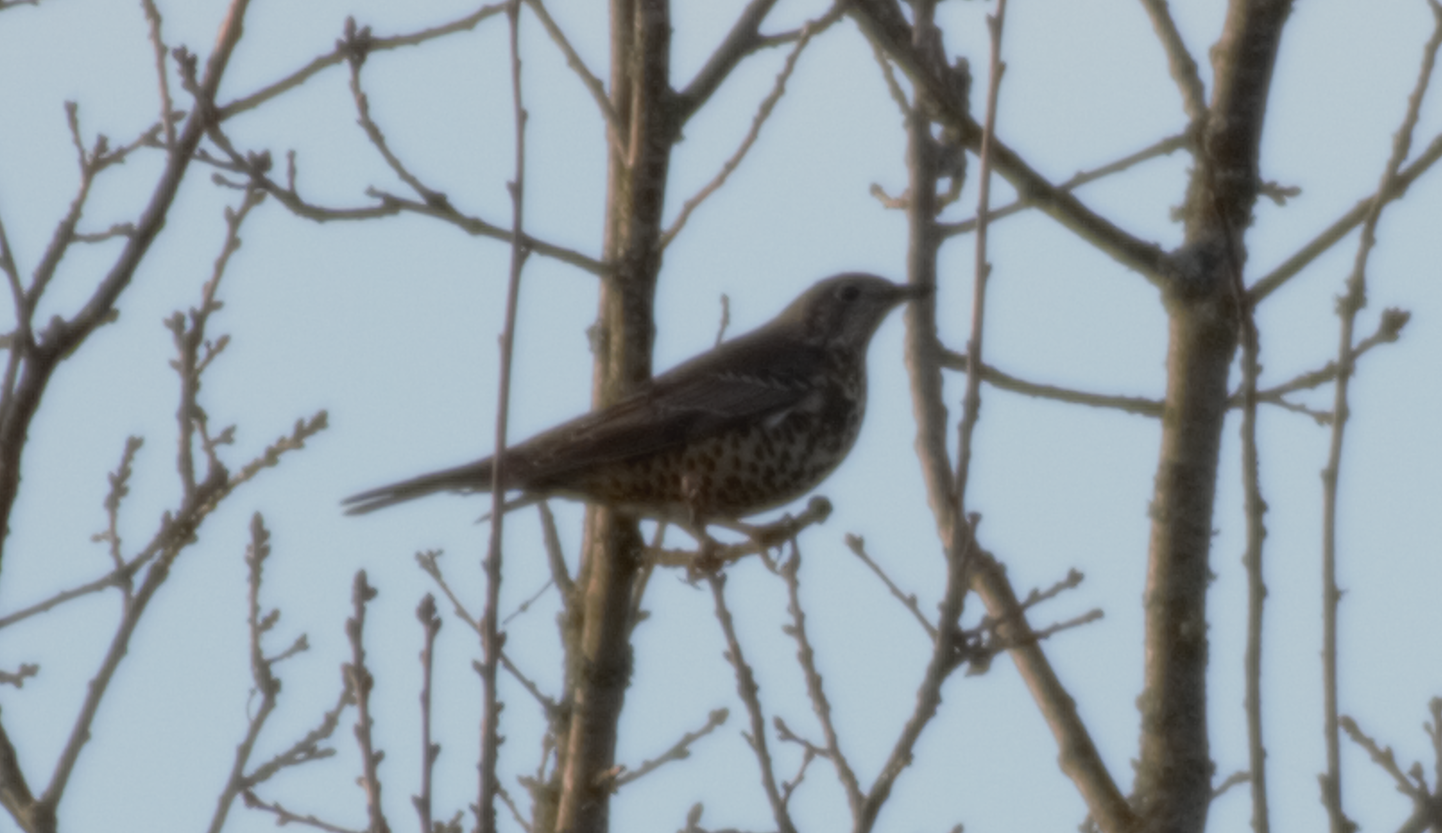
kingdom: Animalia
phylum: Chordata
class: Aves
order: Passeriformes
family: Turdidae
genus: Turdus
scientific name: Turdus pilaris
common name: Fieldfare
